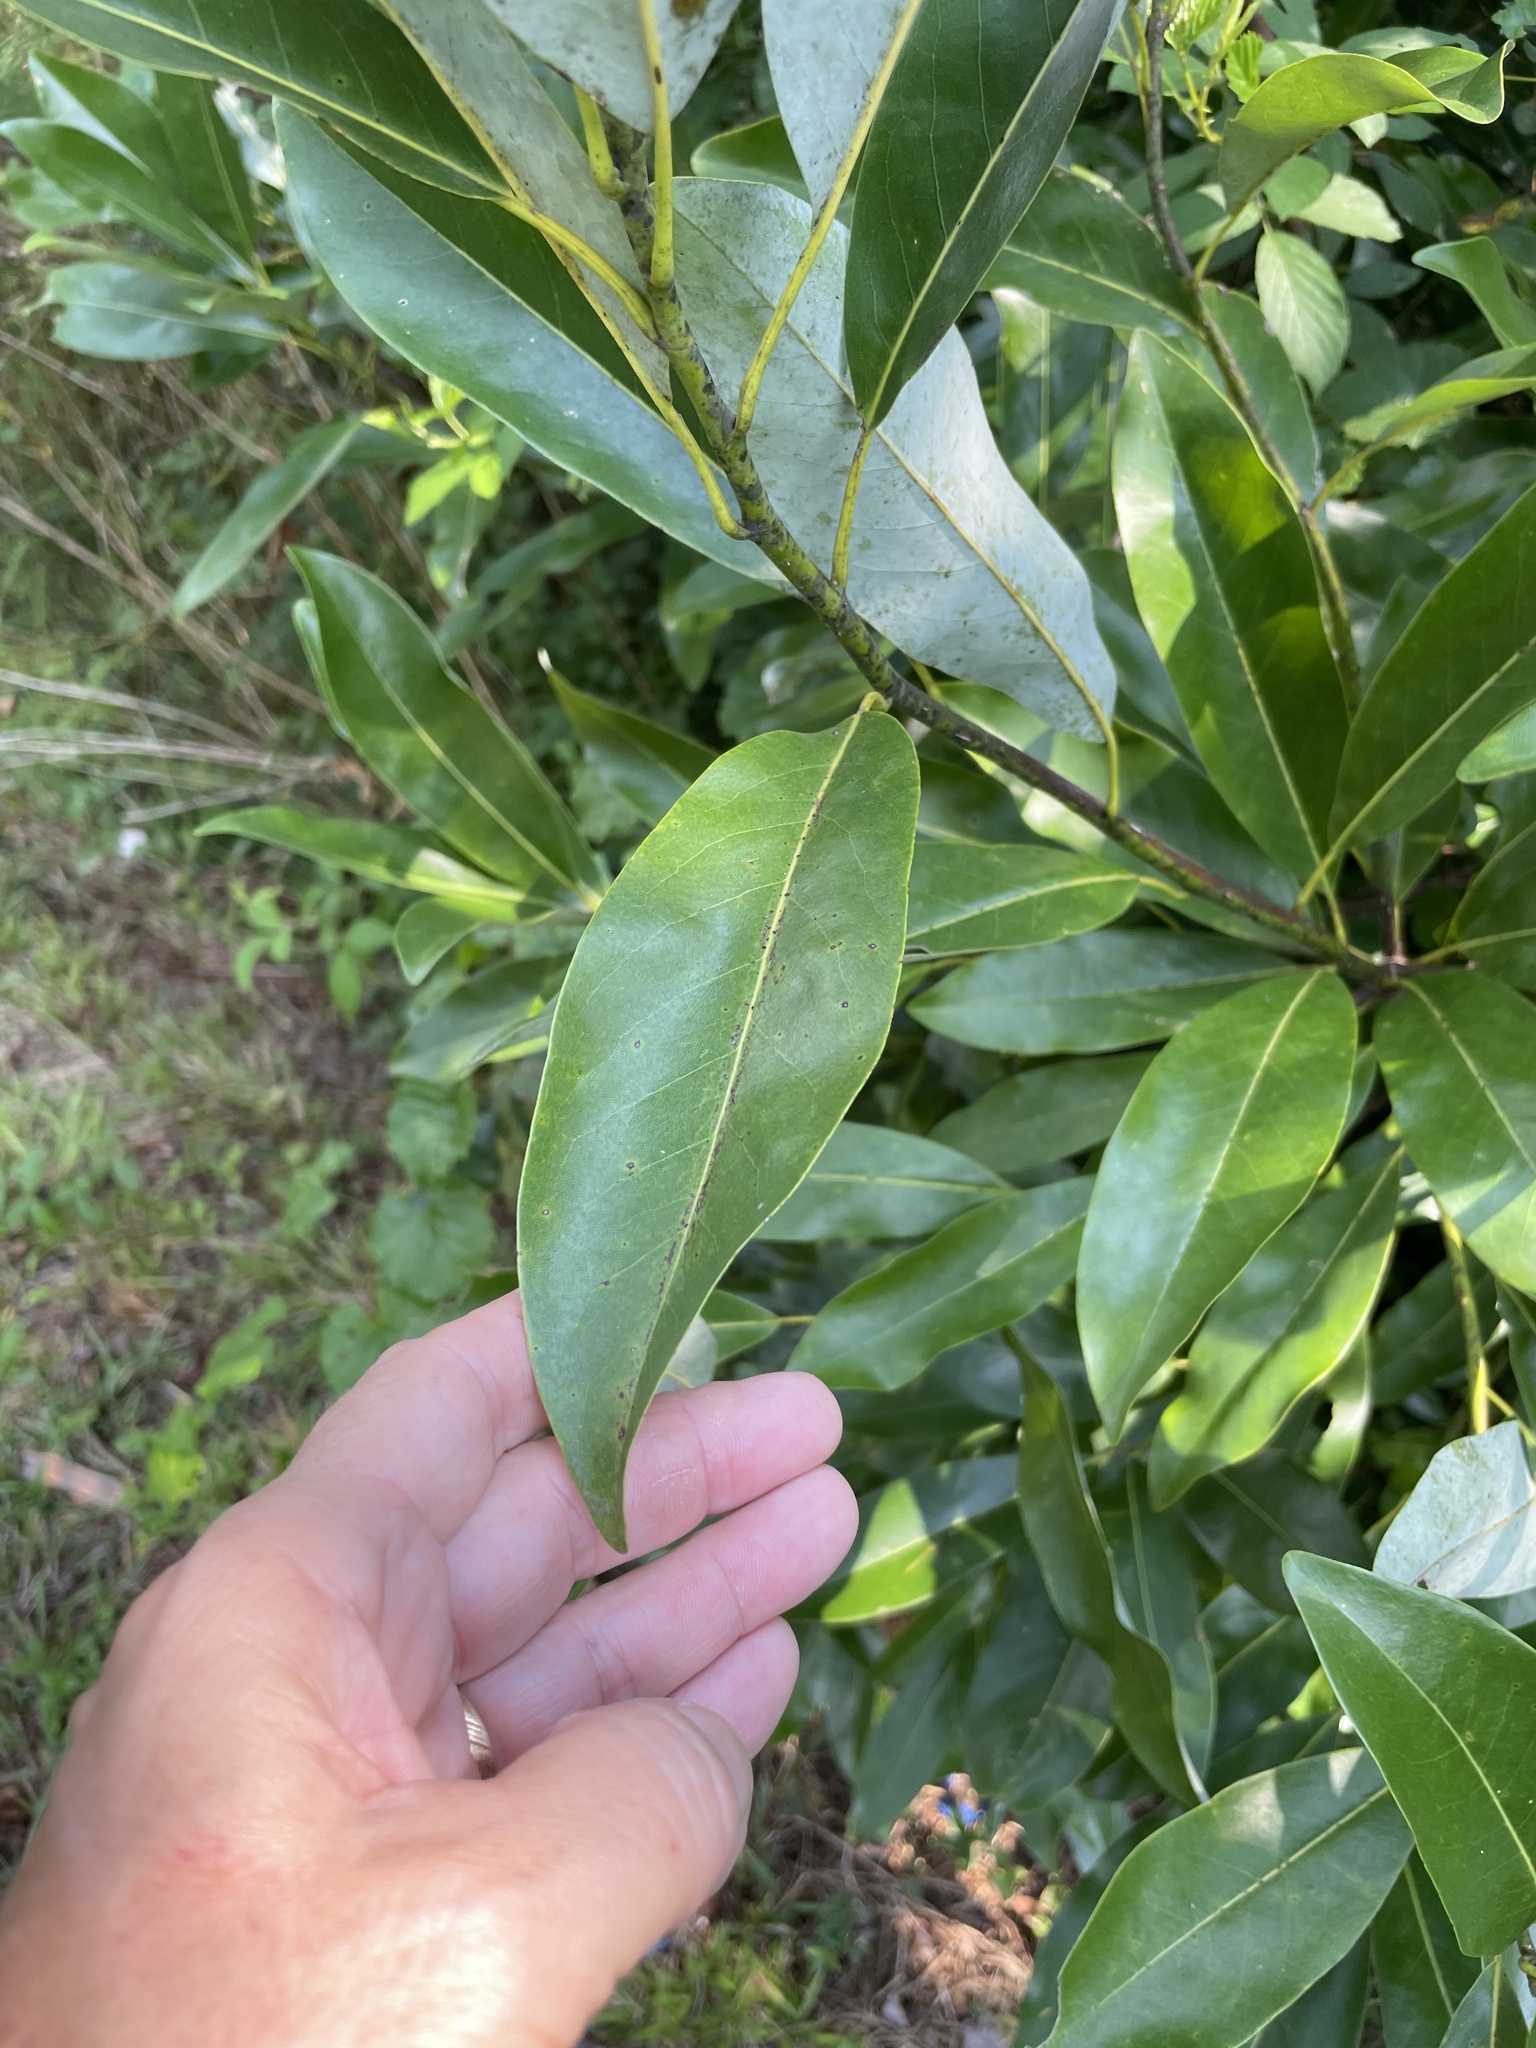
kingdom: Plantae
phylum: Tracheophyta
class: Magnoliopsida
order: Magnoliales
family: Magnoliaceae
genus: Magnolia
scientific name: Magnolia virginiana
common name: Swamp bay
